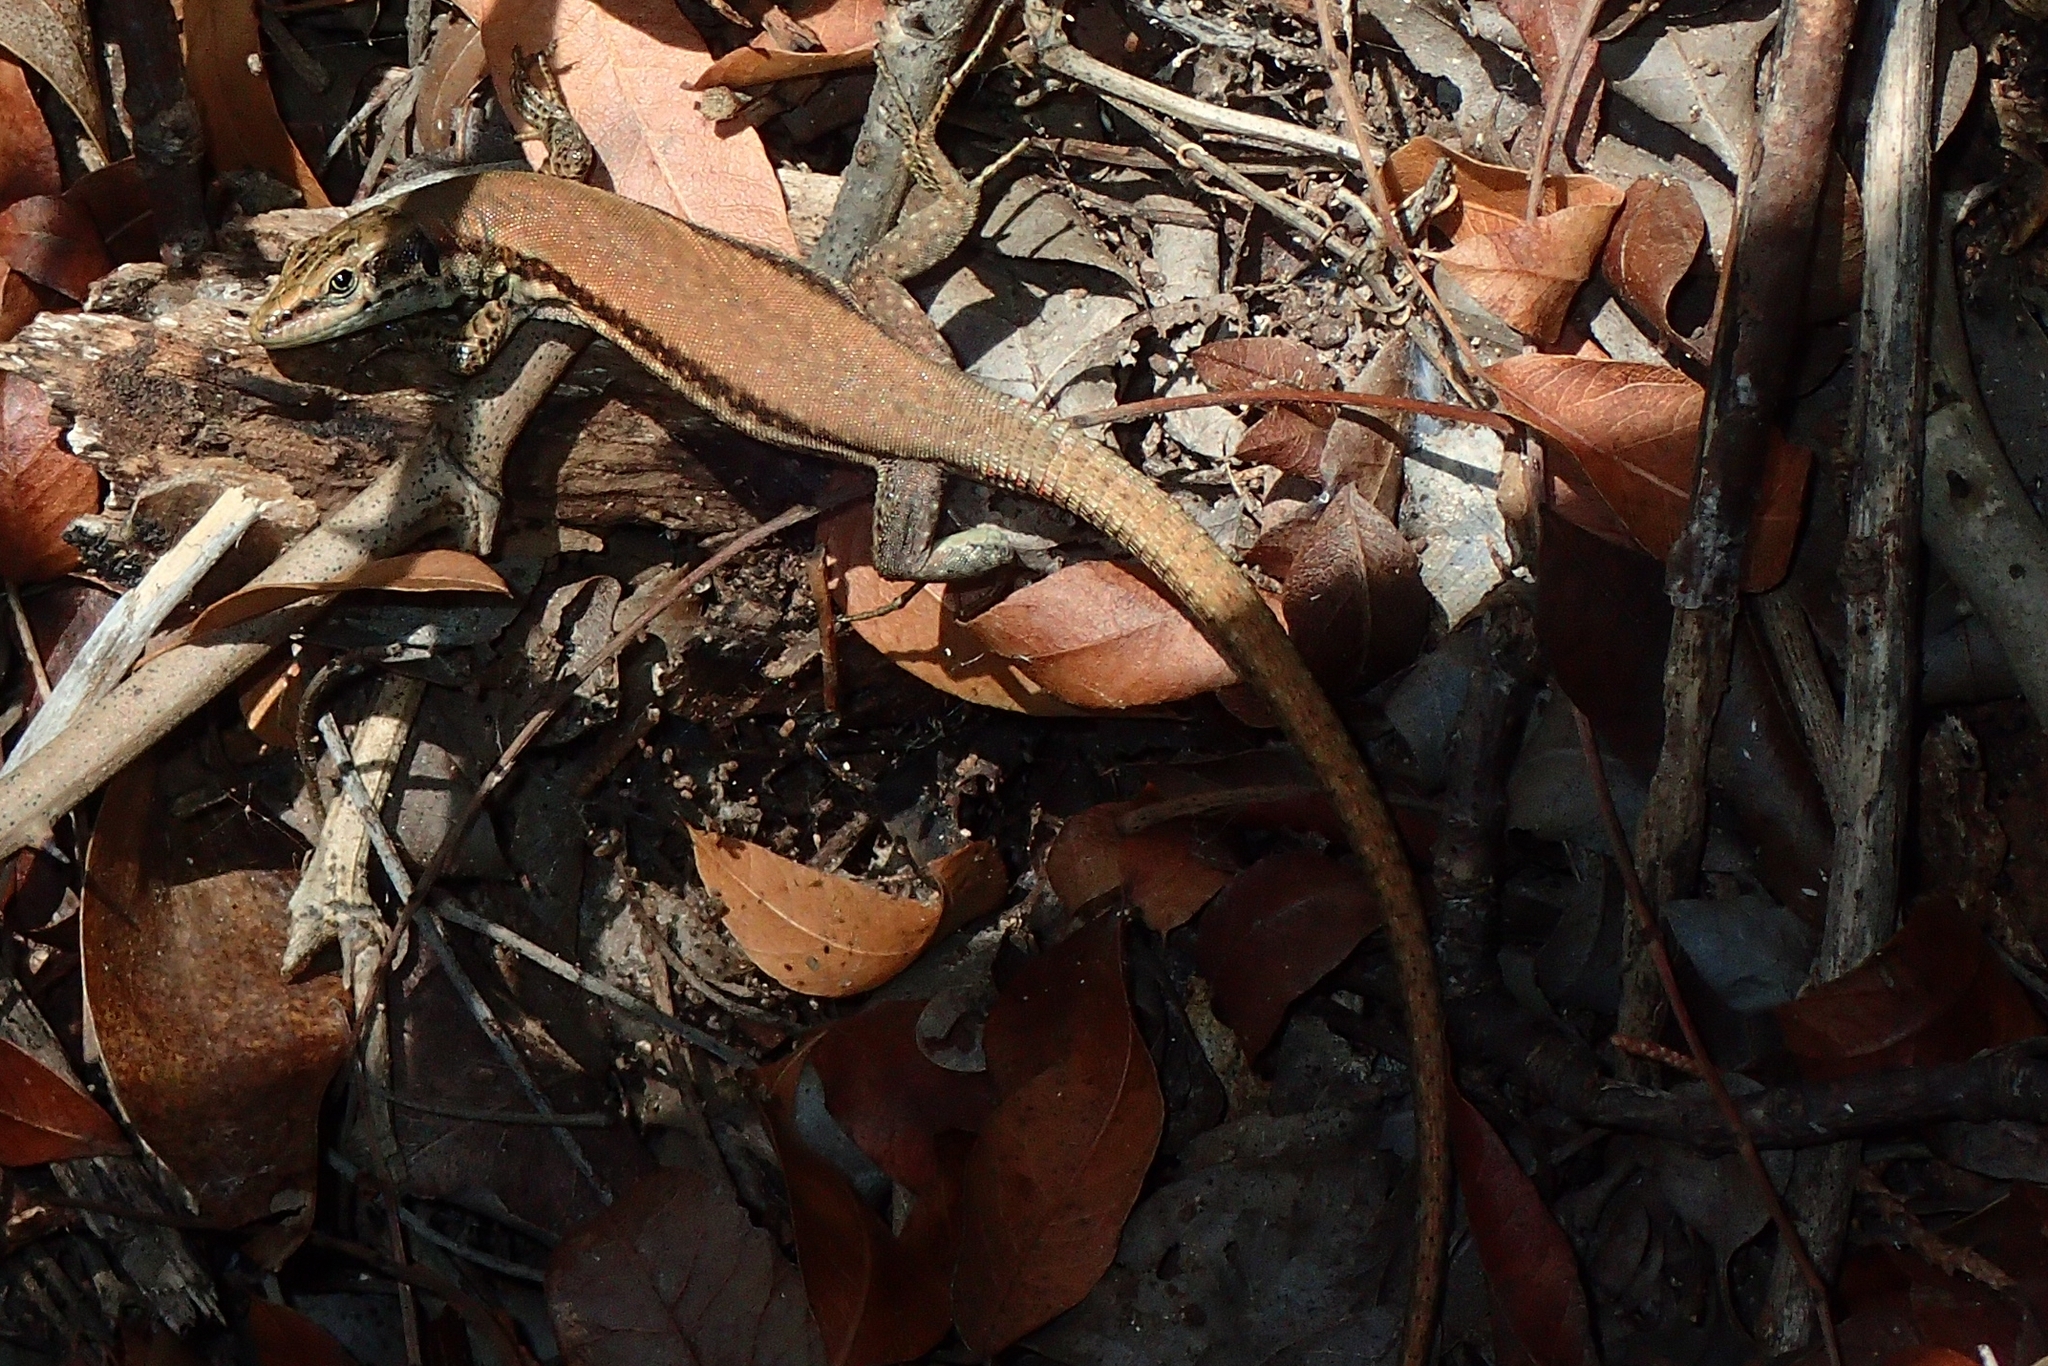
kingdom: Animalia
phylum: Chordata
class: Squamata
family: Lacertidae
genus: Phoenicolacerta
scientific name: Phoenicolacerta troodica
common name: Troodos wall lizard
